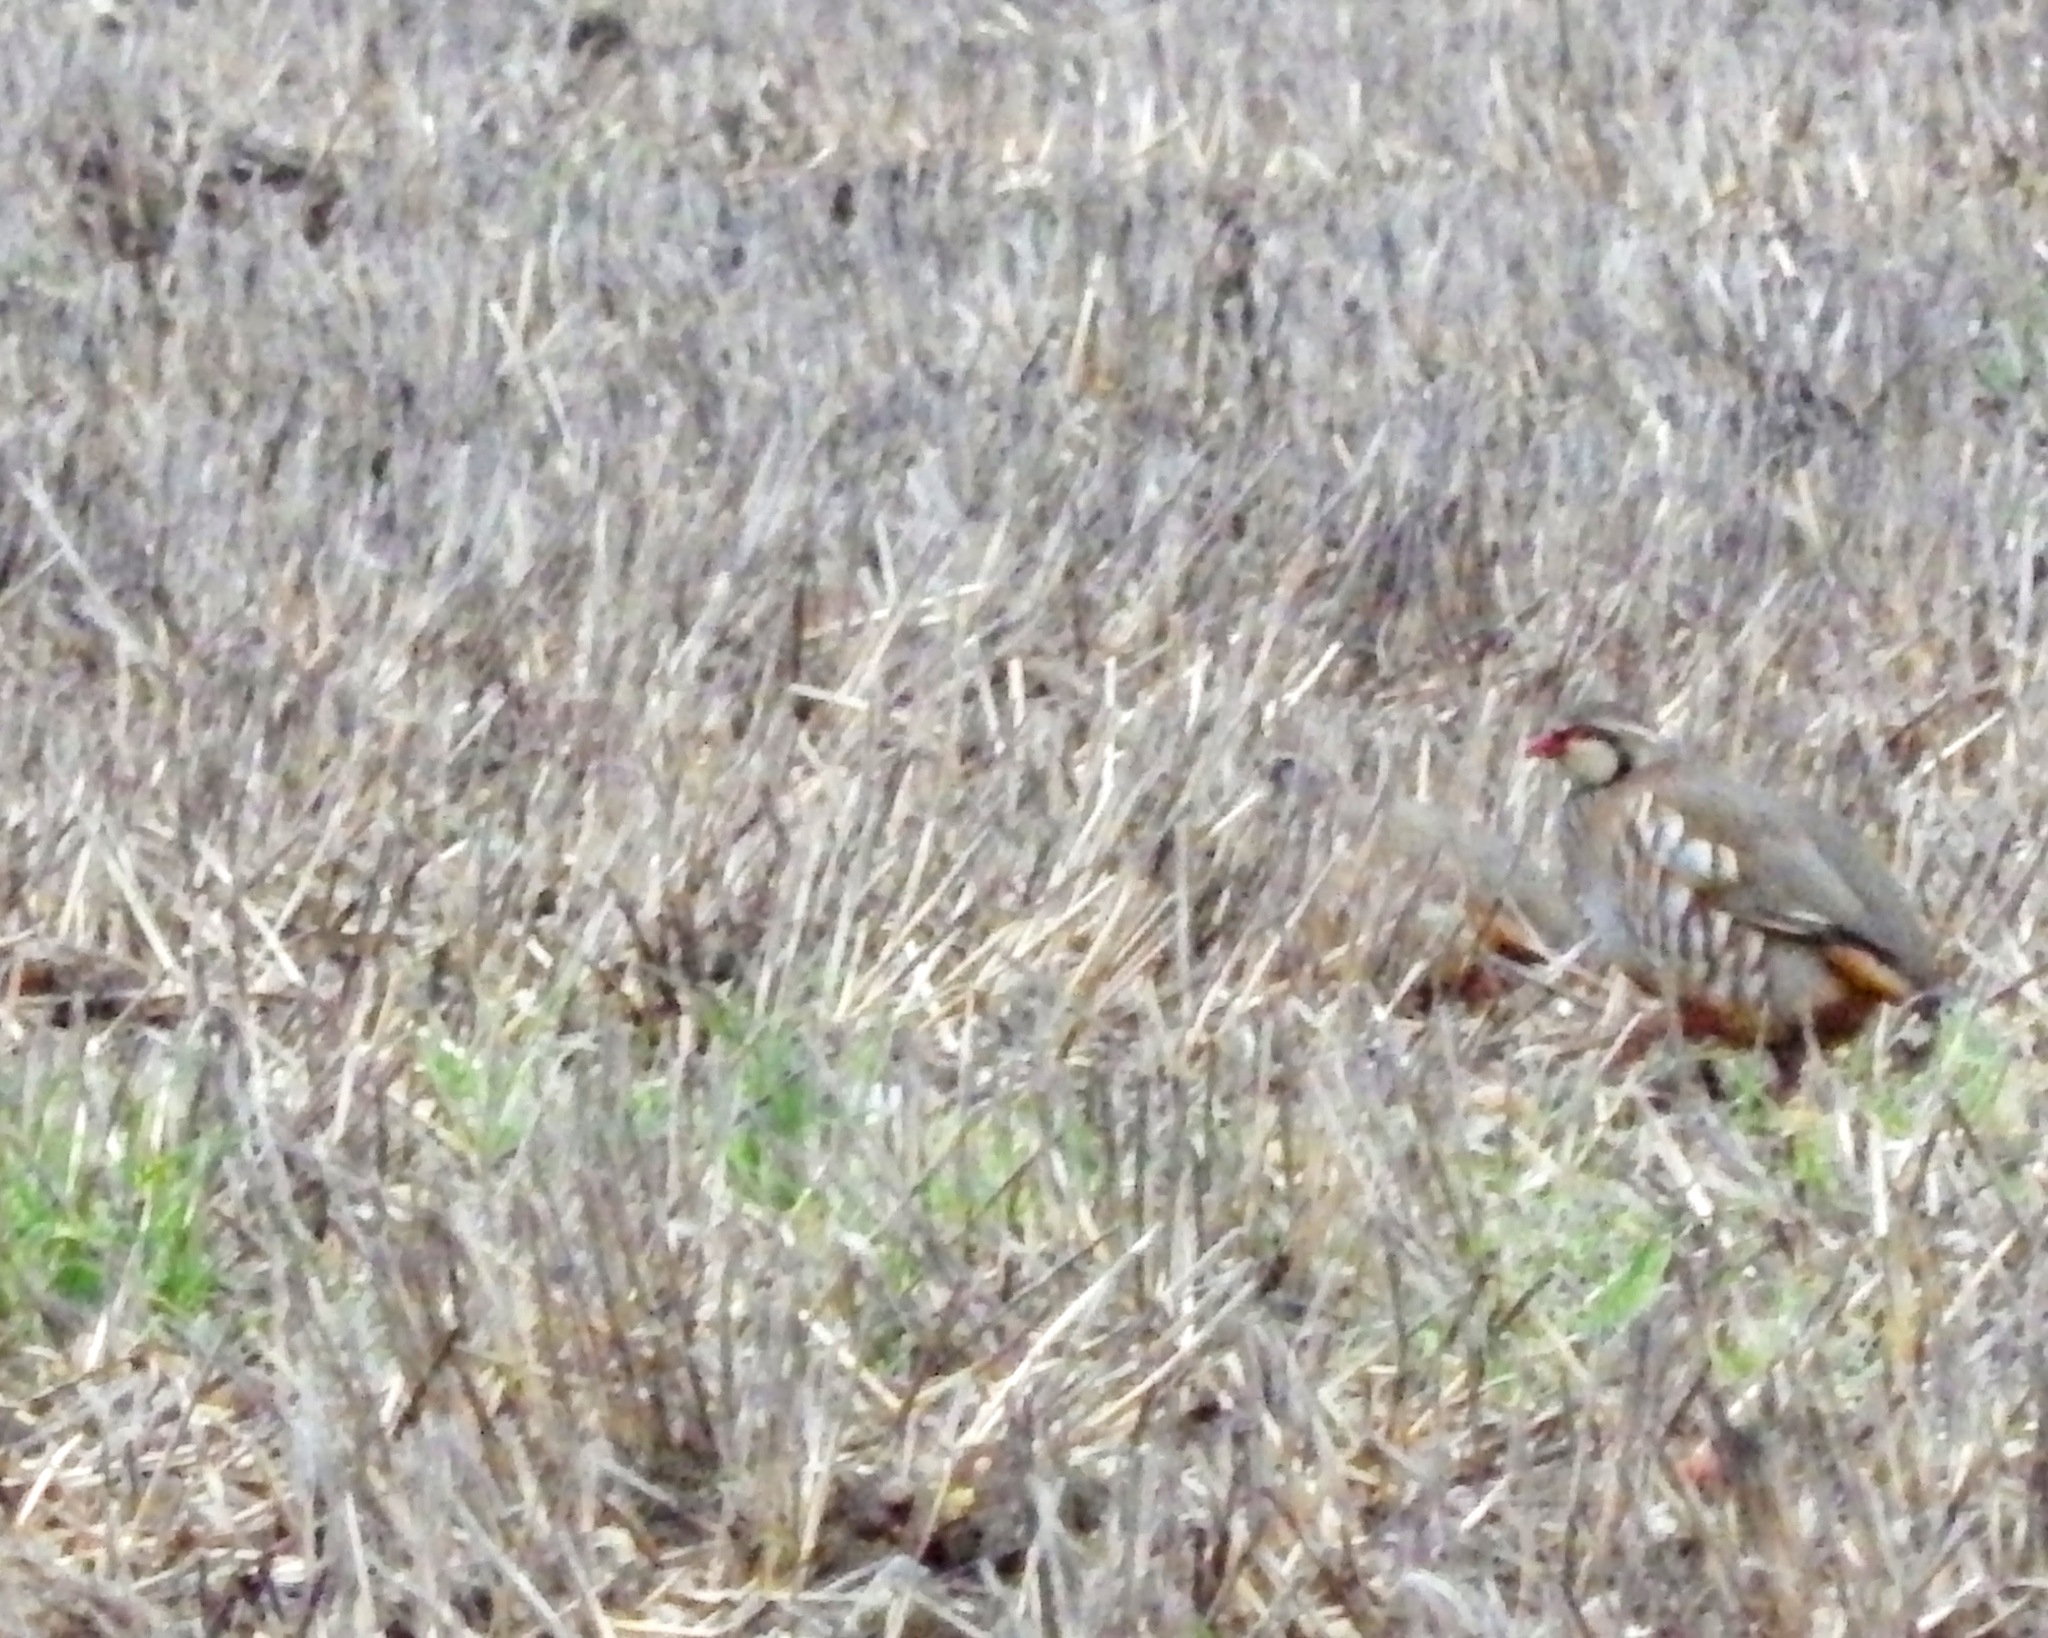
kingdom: Animalia
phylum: Chordata
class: Aves
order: Galliformes
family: Phasianidae
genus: Alectoris
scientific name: Alectoris rufa
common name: Red-legged partridge
